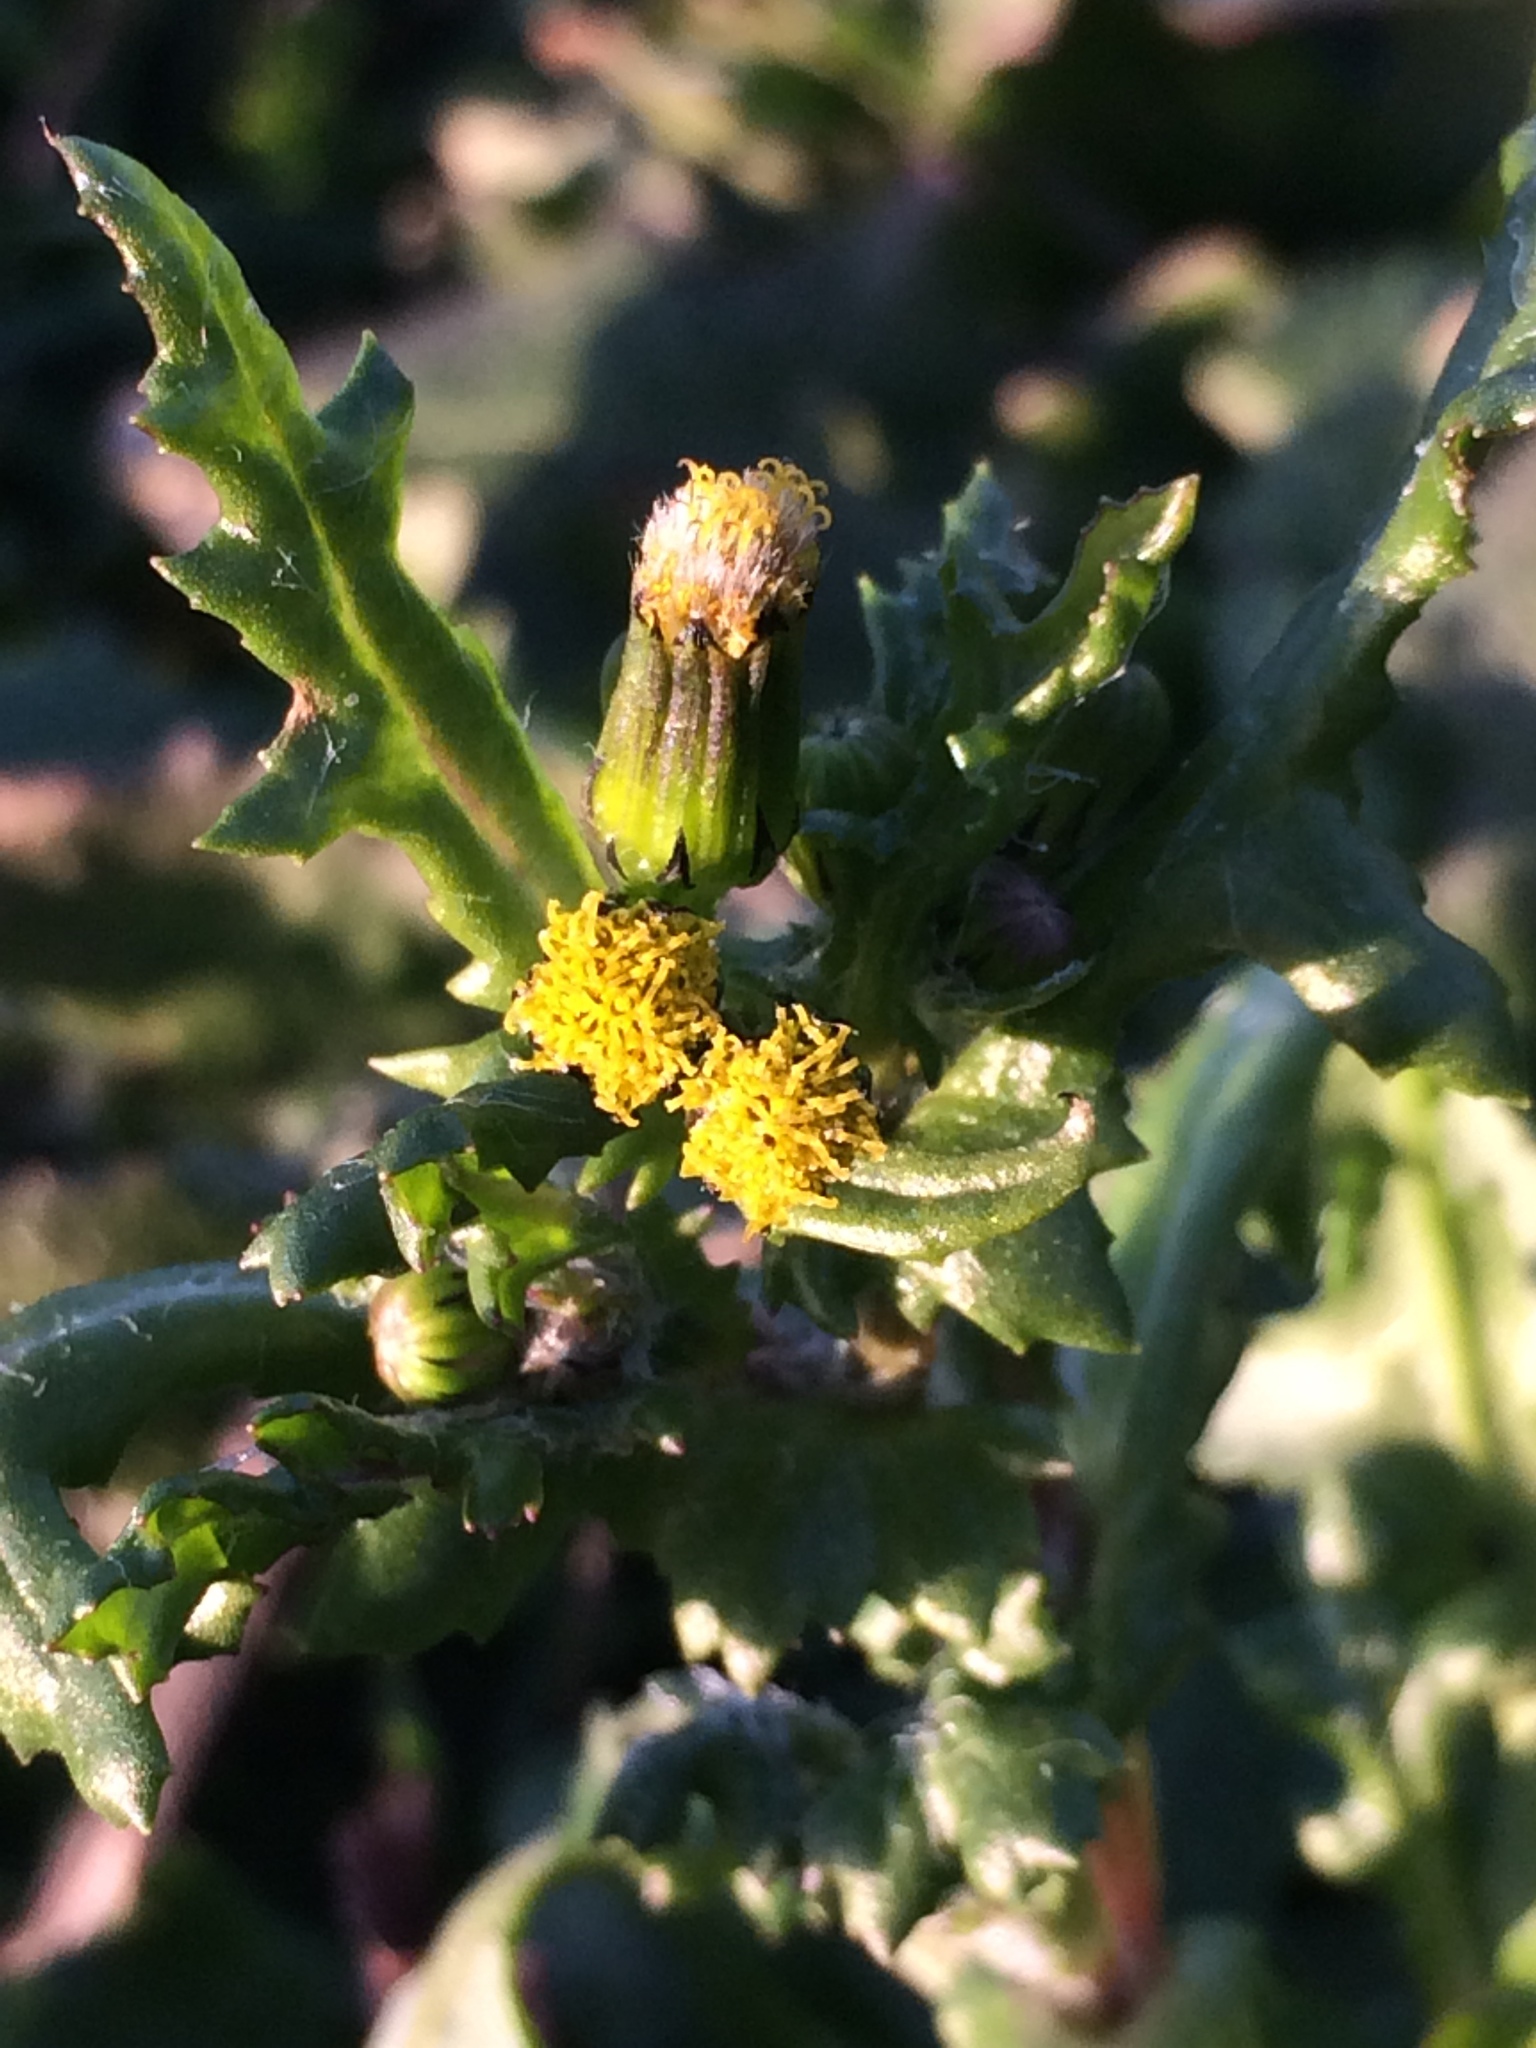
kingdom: Plantae
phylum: Tracheophyta
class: Magnoliopsida
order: Asterales
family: Asteraceae
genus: Senecio
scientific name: Senecio vulgaris
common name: Old-man-in-the-spring
